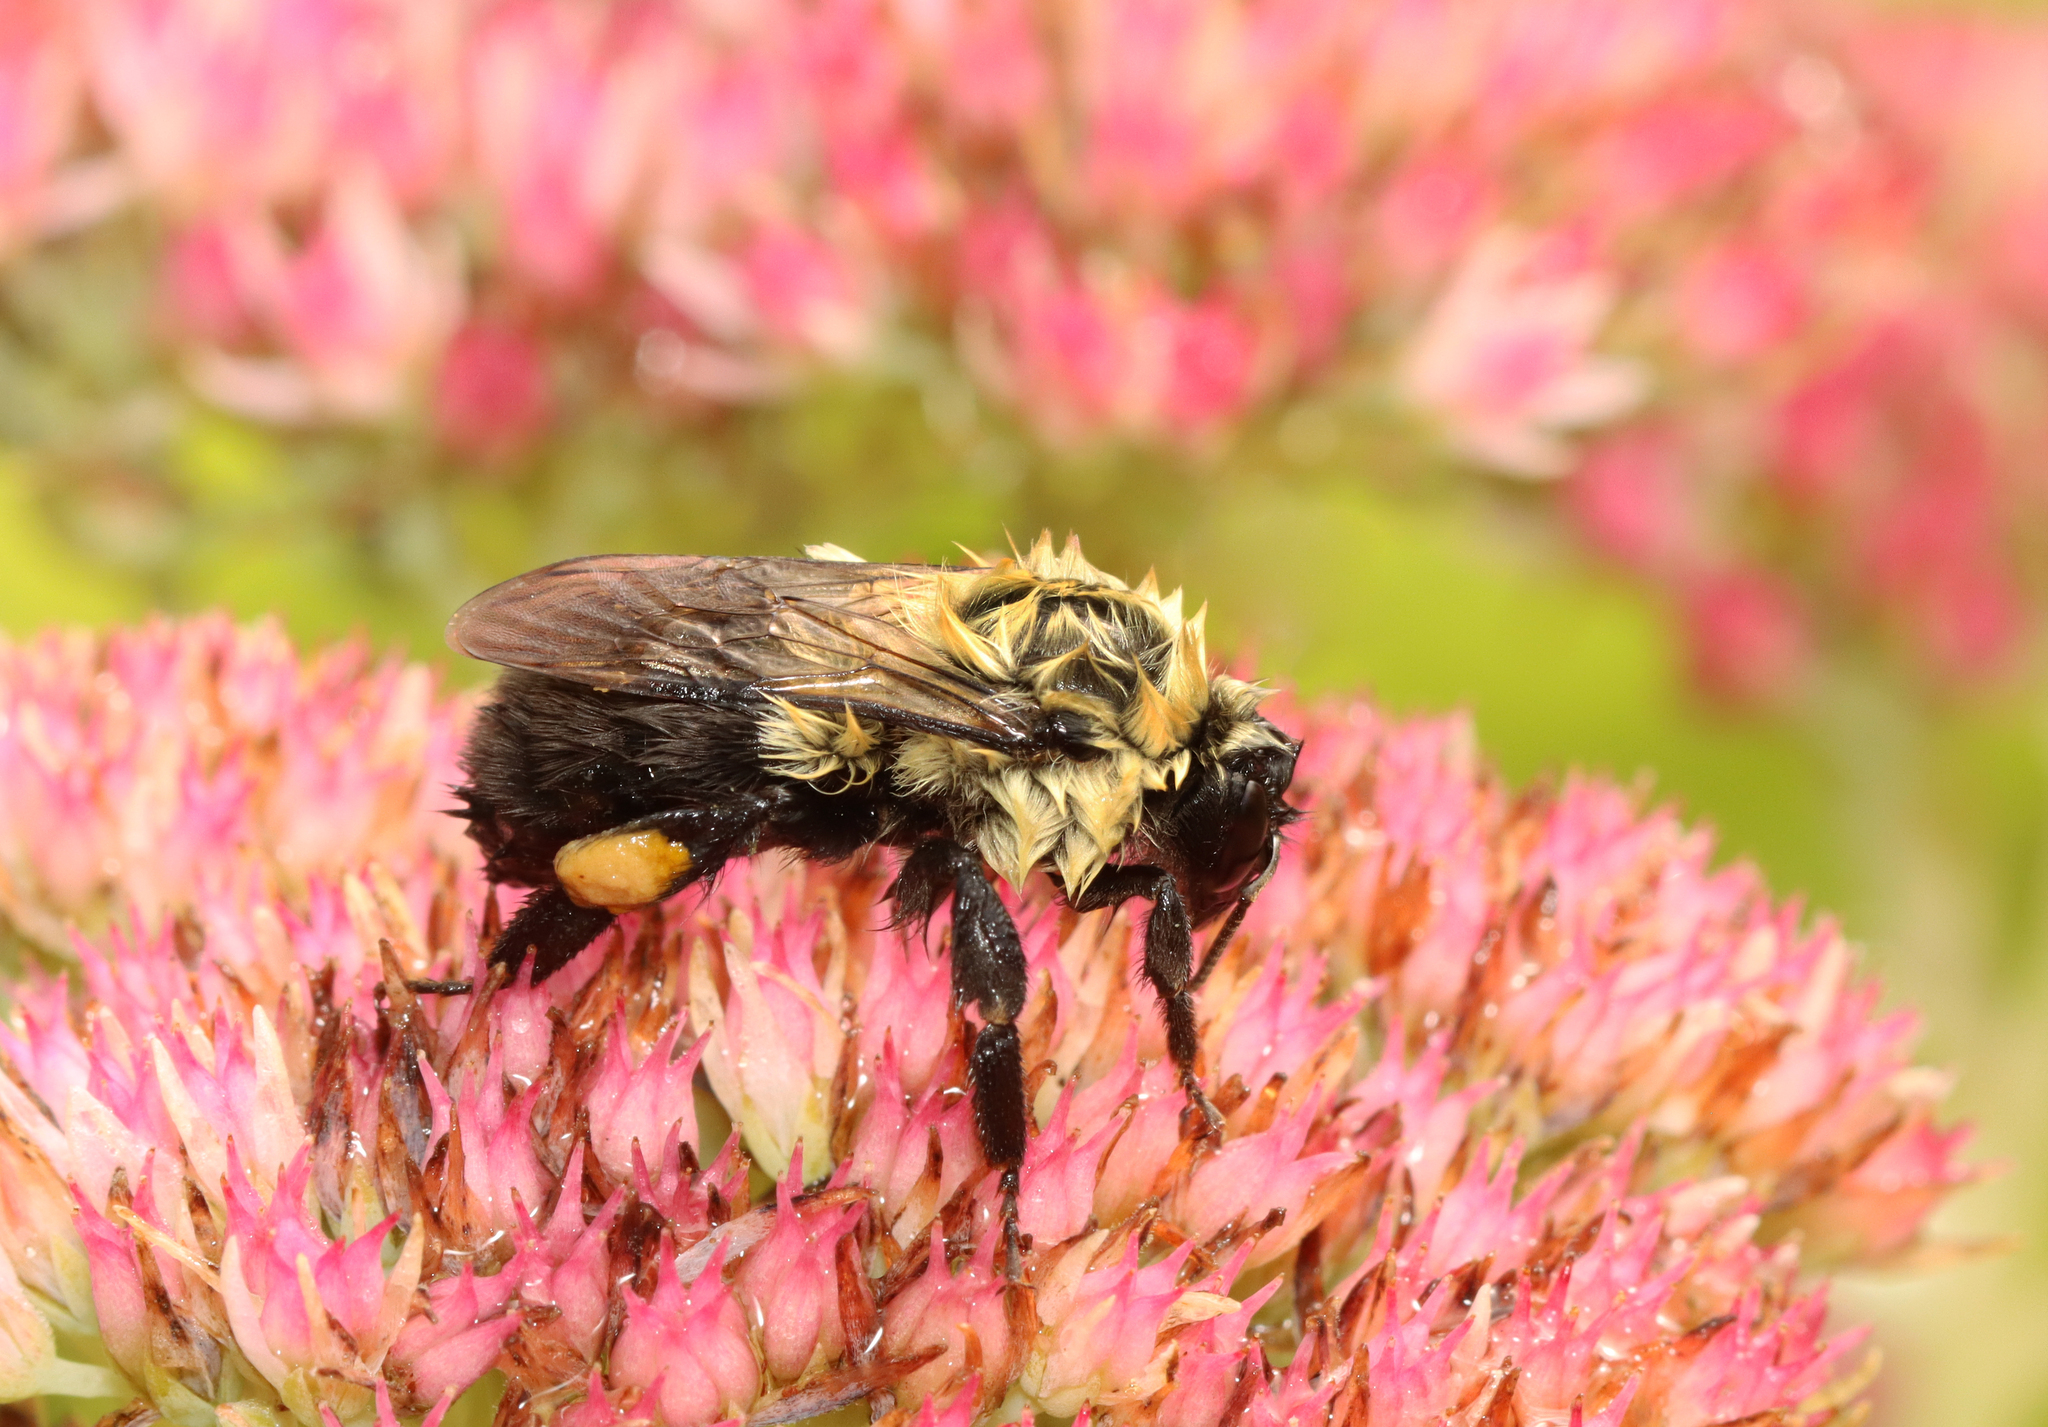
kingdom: Animalia
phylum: Arthropoda
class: Insecta
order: Hymenoptera
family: Apidae
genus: Bombus
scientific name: Bombus impatiens
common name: Common eastern bumble bee
